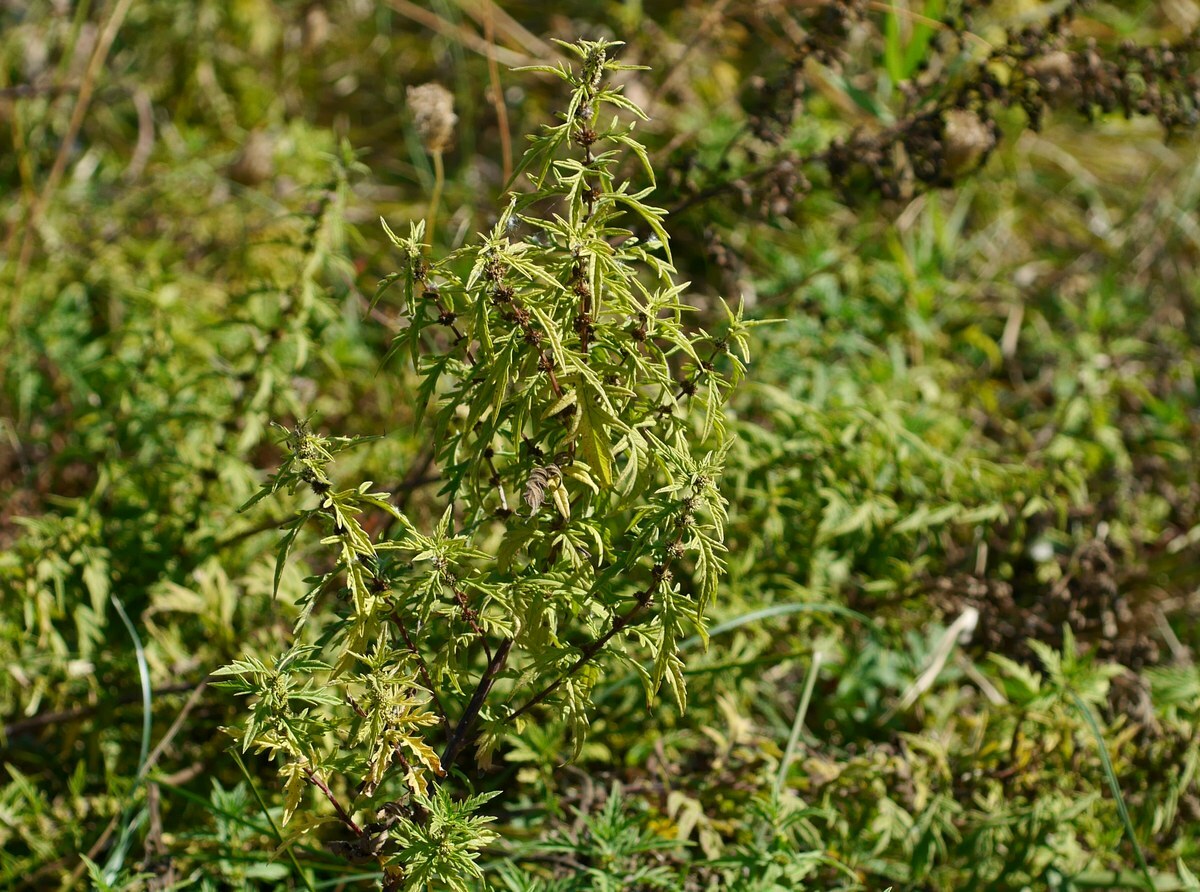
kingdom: Plantae
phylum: Tracheophyta
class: Magnoliopsida
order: Lamiales
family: Lamiaceae
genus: Lycopus
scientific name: Lycopus exaltatus
